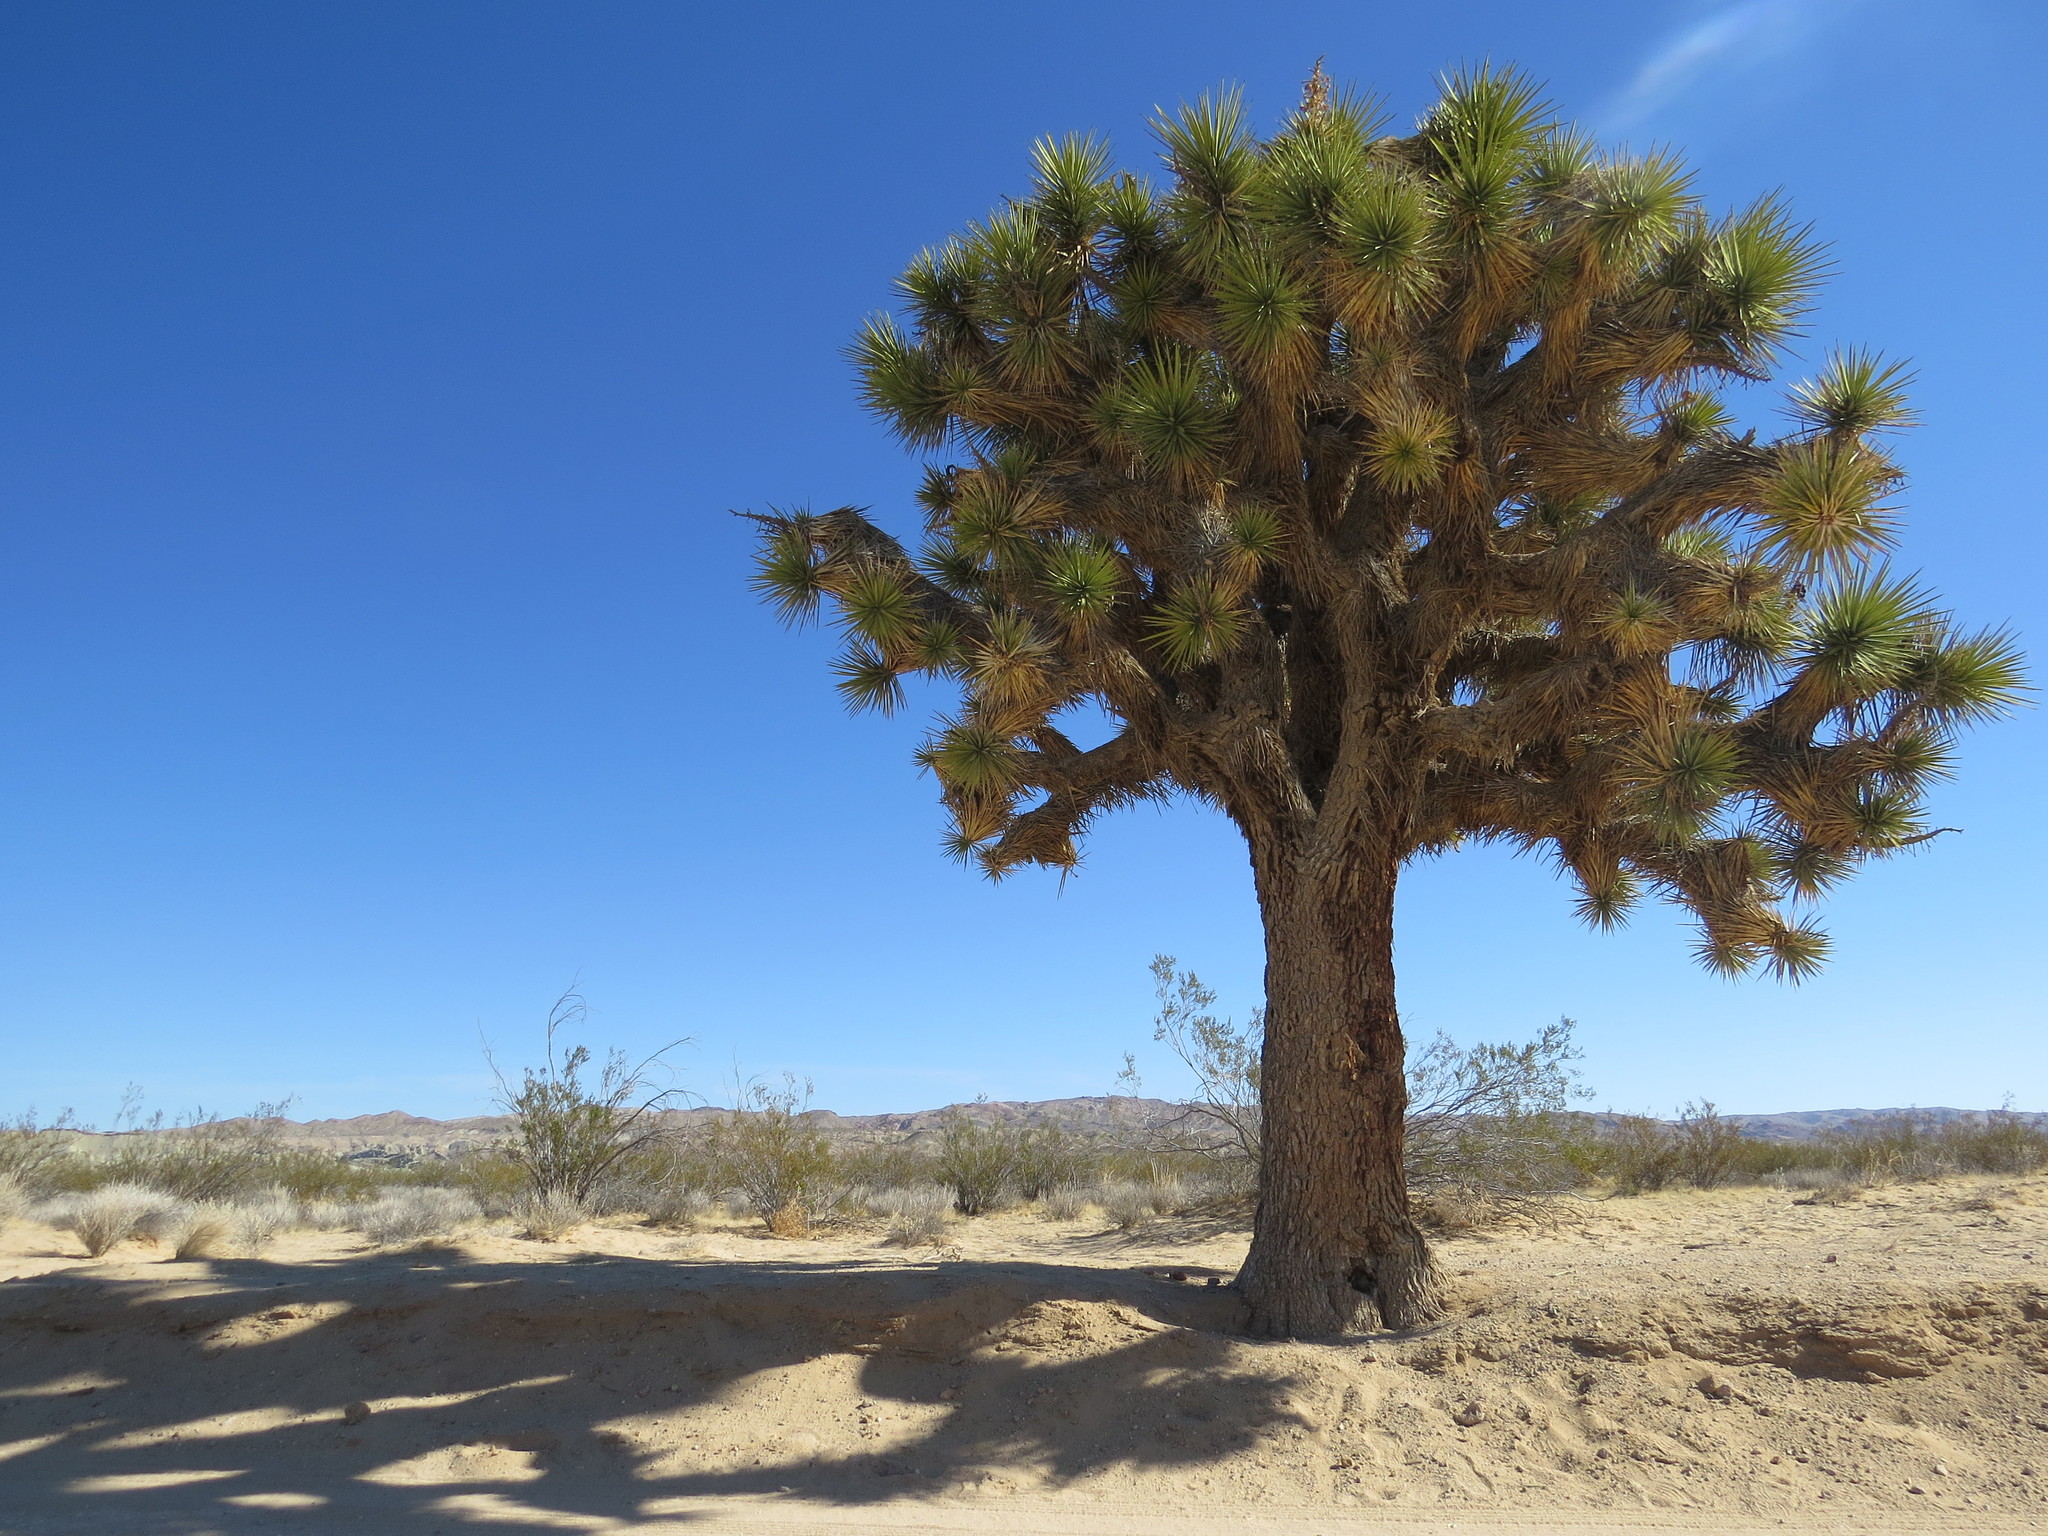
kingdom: Plantae
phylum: Tracheophyta
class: Liliopsida
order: Asparagales
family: Asparagaceae
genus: Yucca
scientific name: Yucca brevifolia
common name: Joshua tree
